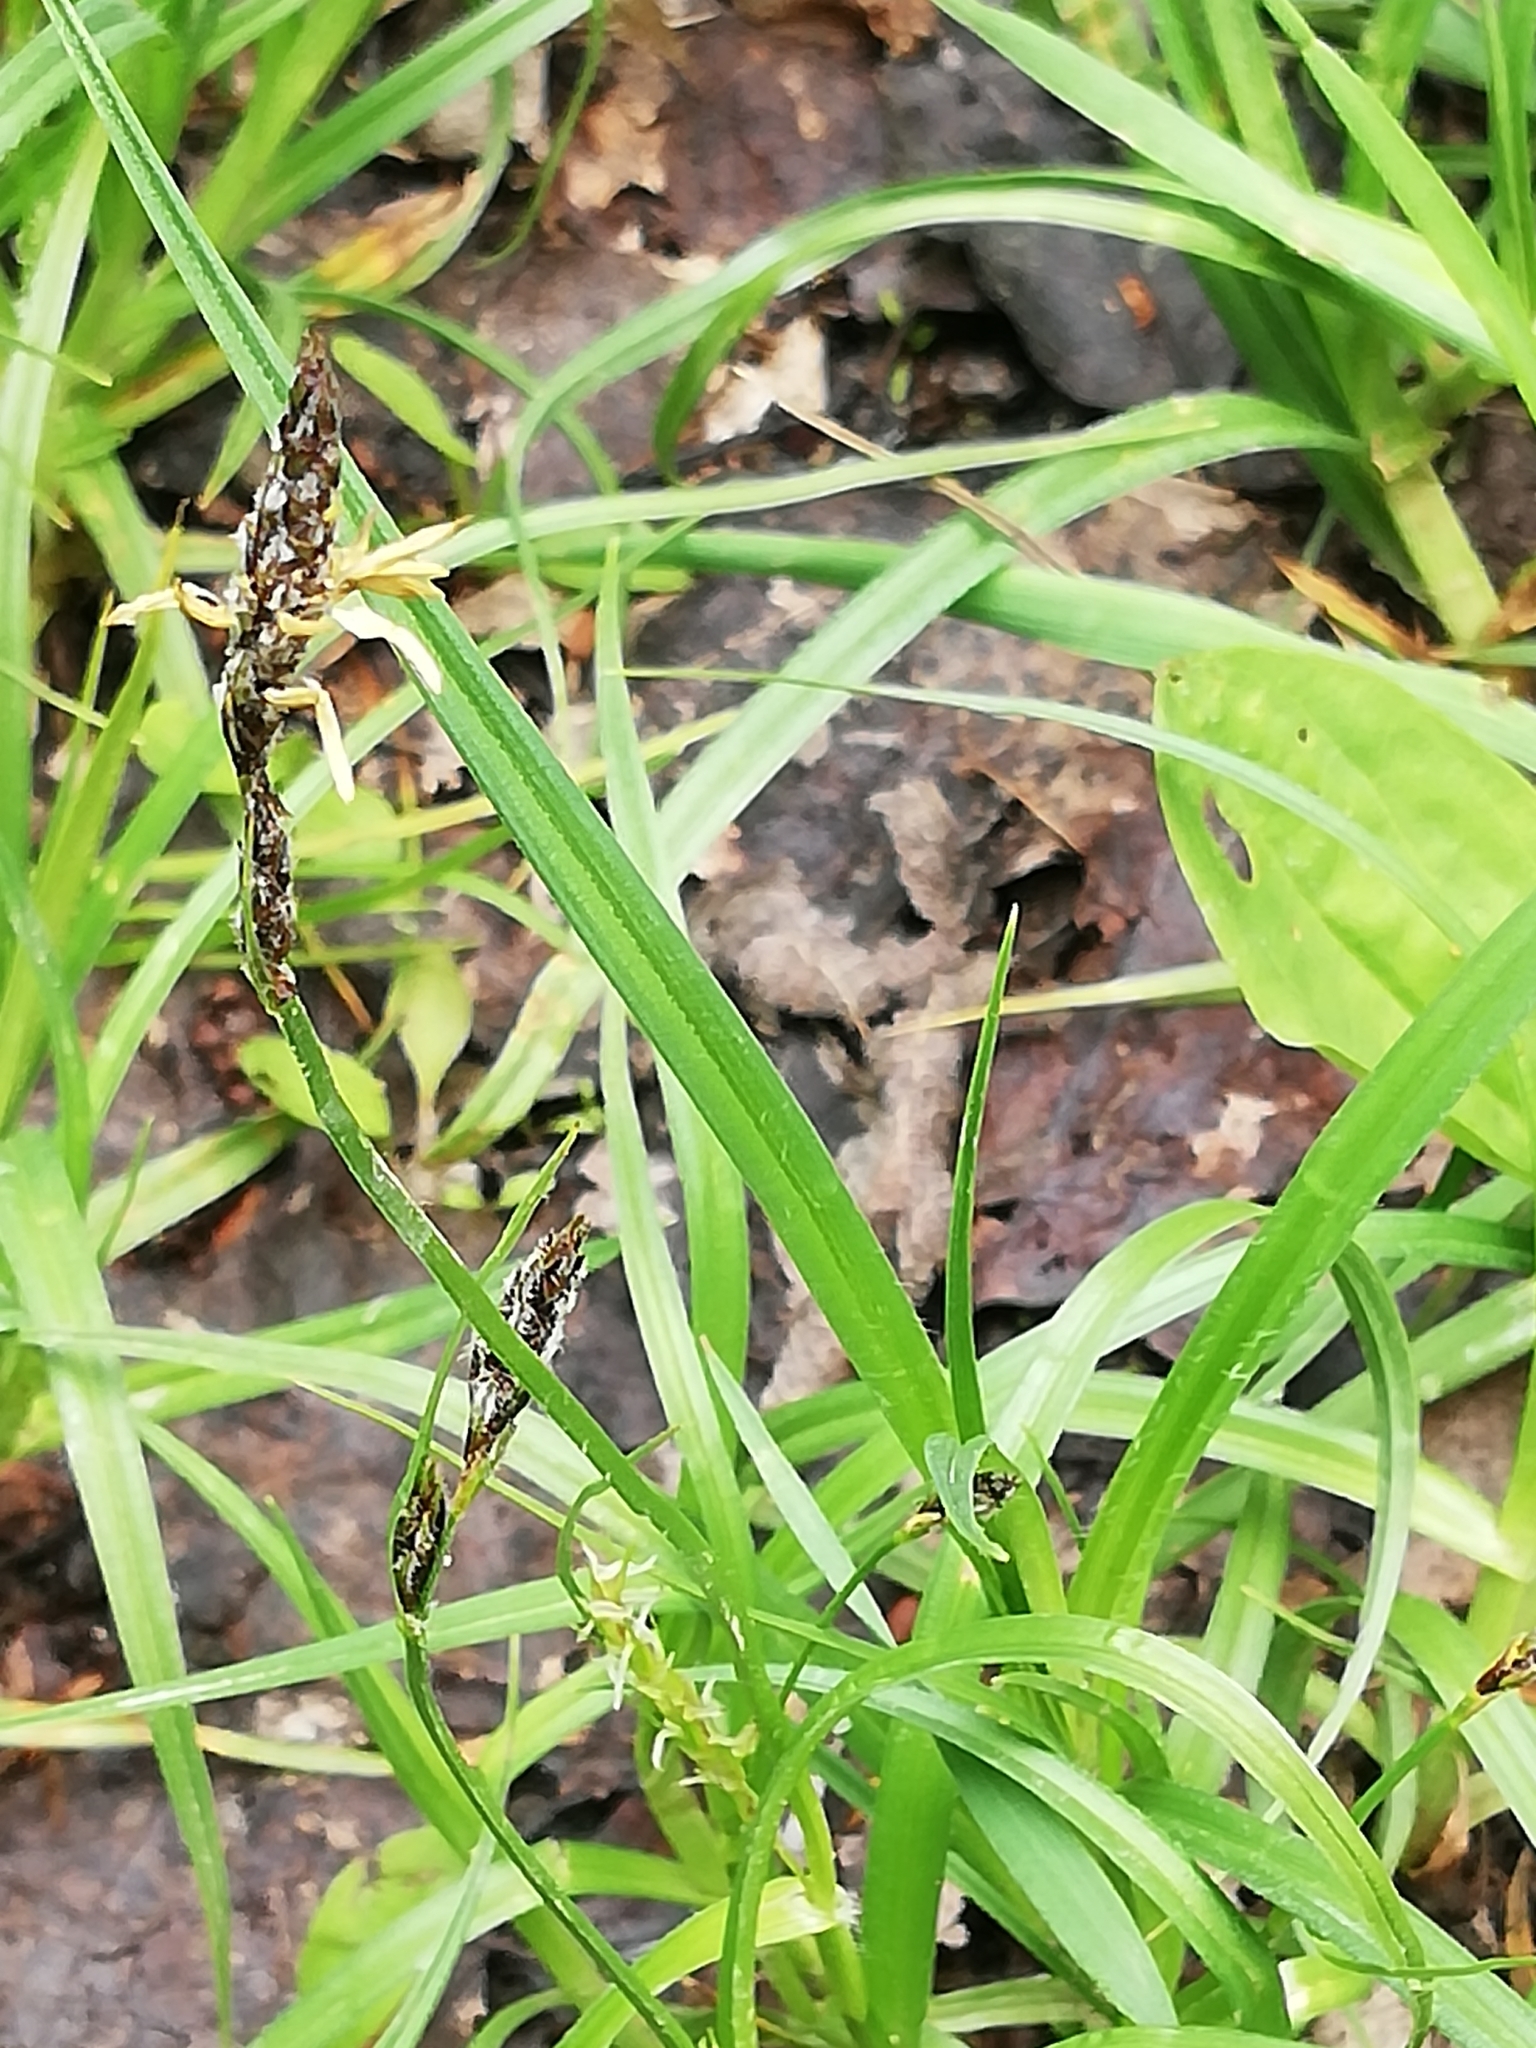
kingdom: Plantae
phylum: Tracheophyta
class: Liliopsida
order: Poales
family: Cyperaceae
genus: Carex
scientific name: Carex hirta
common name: Hairy sedge
